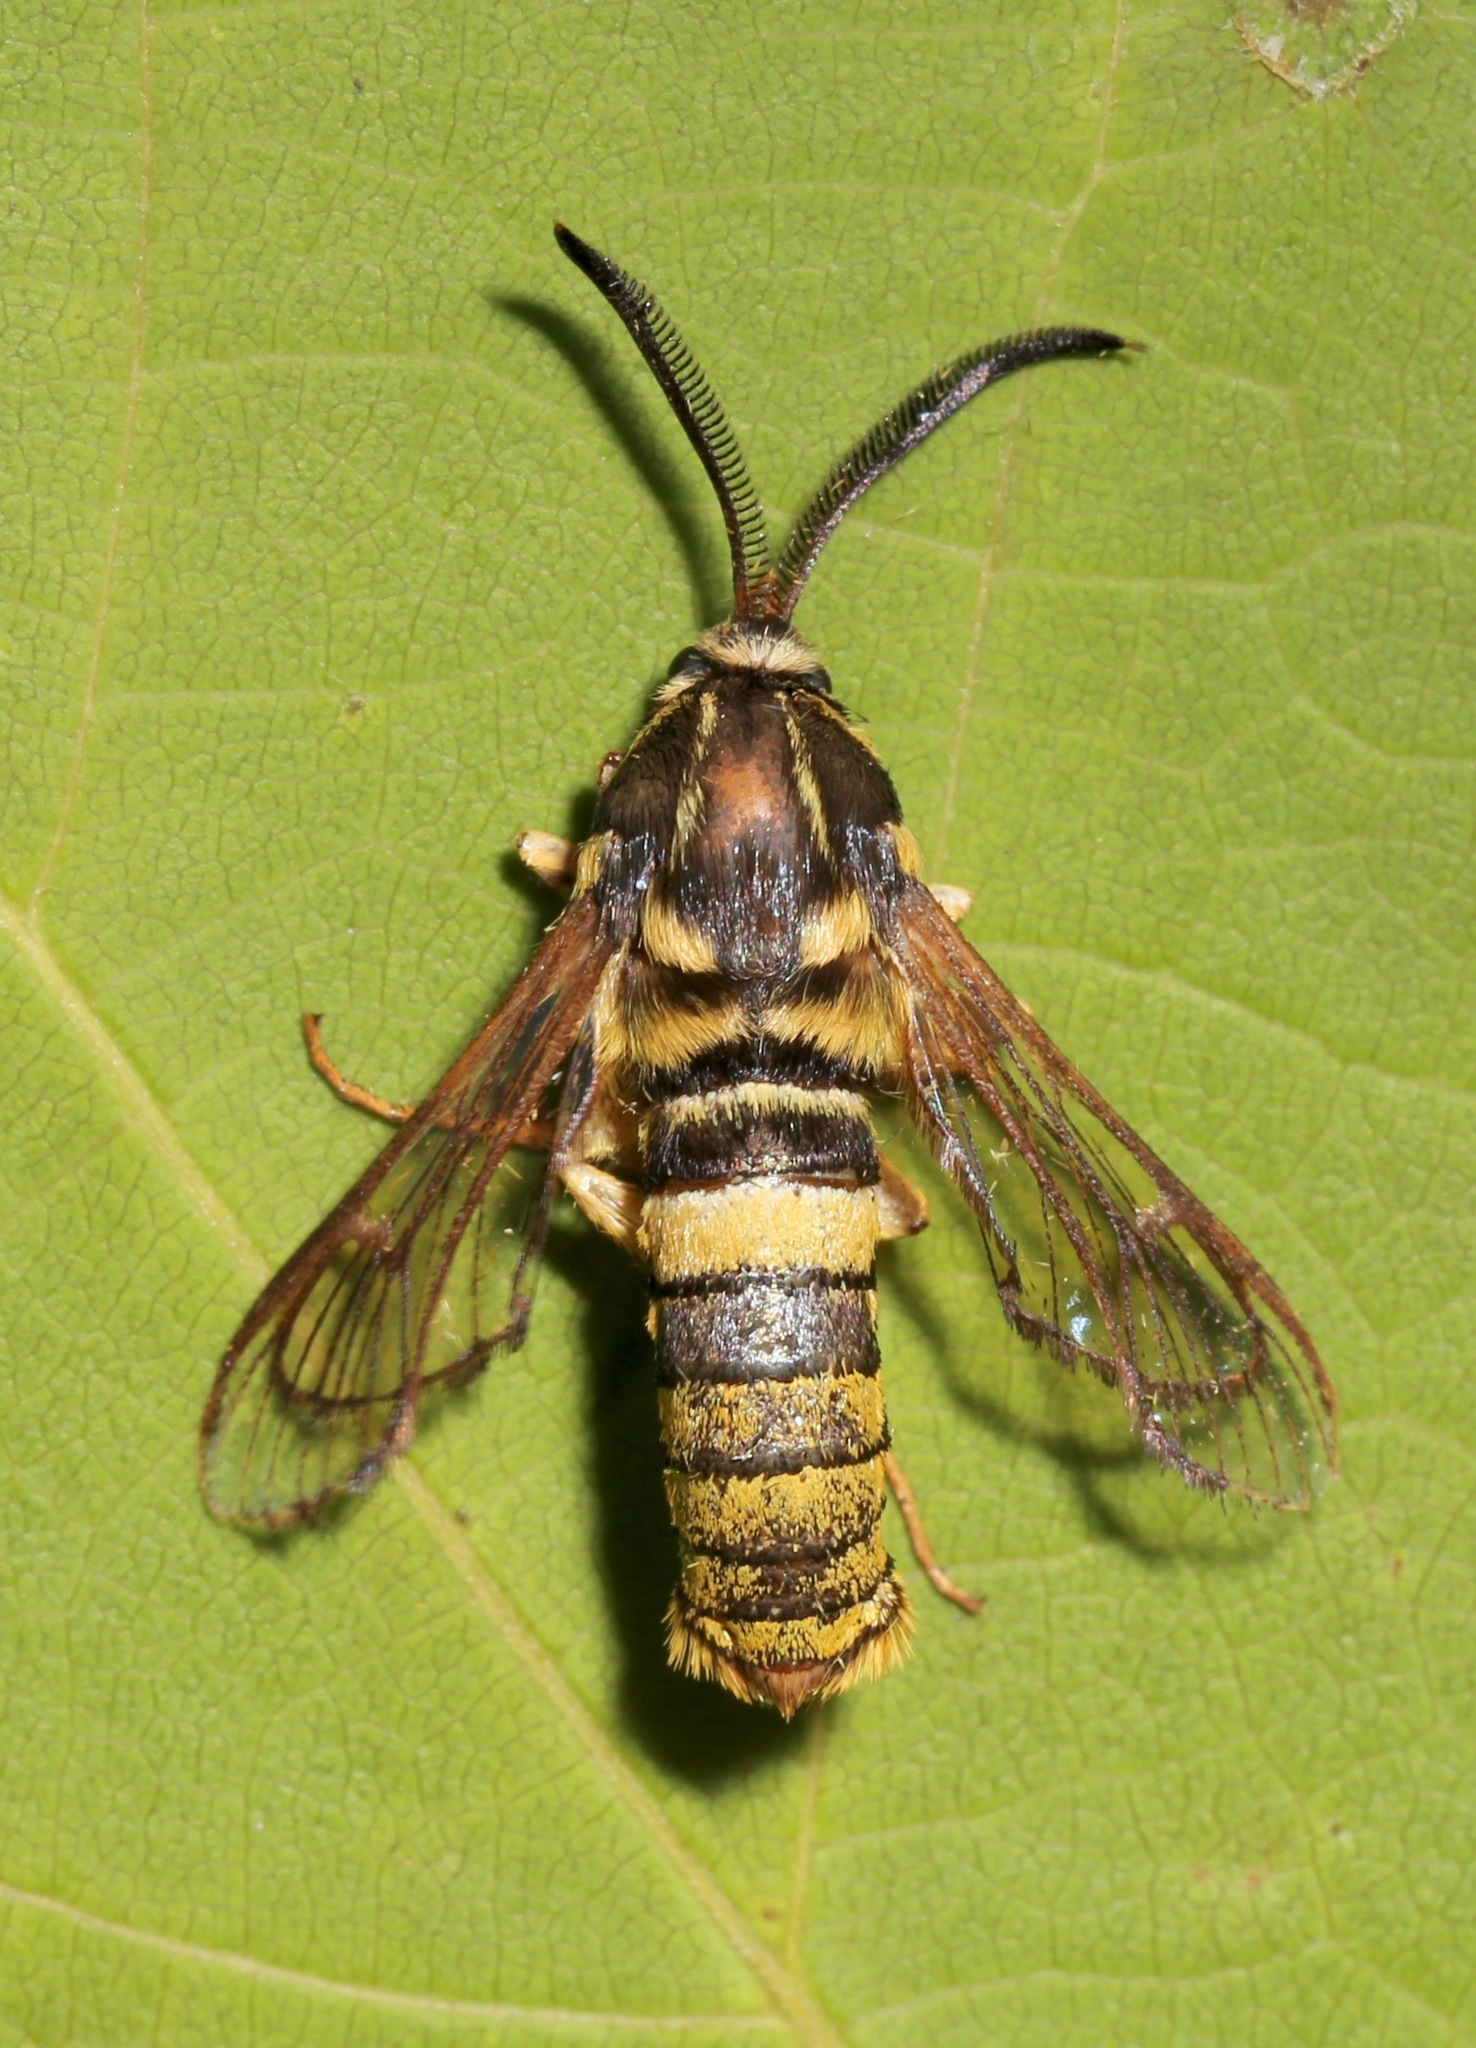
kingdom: Animalia
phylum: Arthropoda
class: Insecta
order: Lepidoptera
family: Sesiidae
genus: Sesia
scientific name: Sesia tibiale
